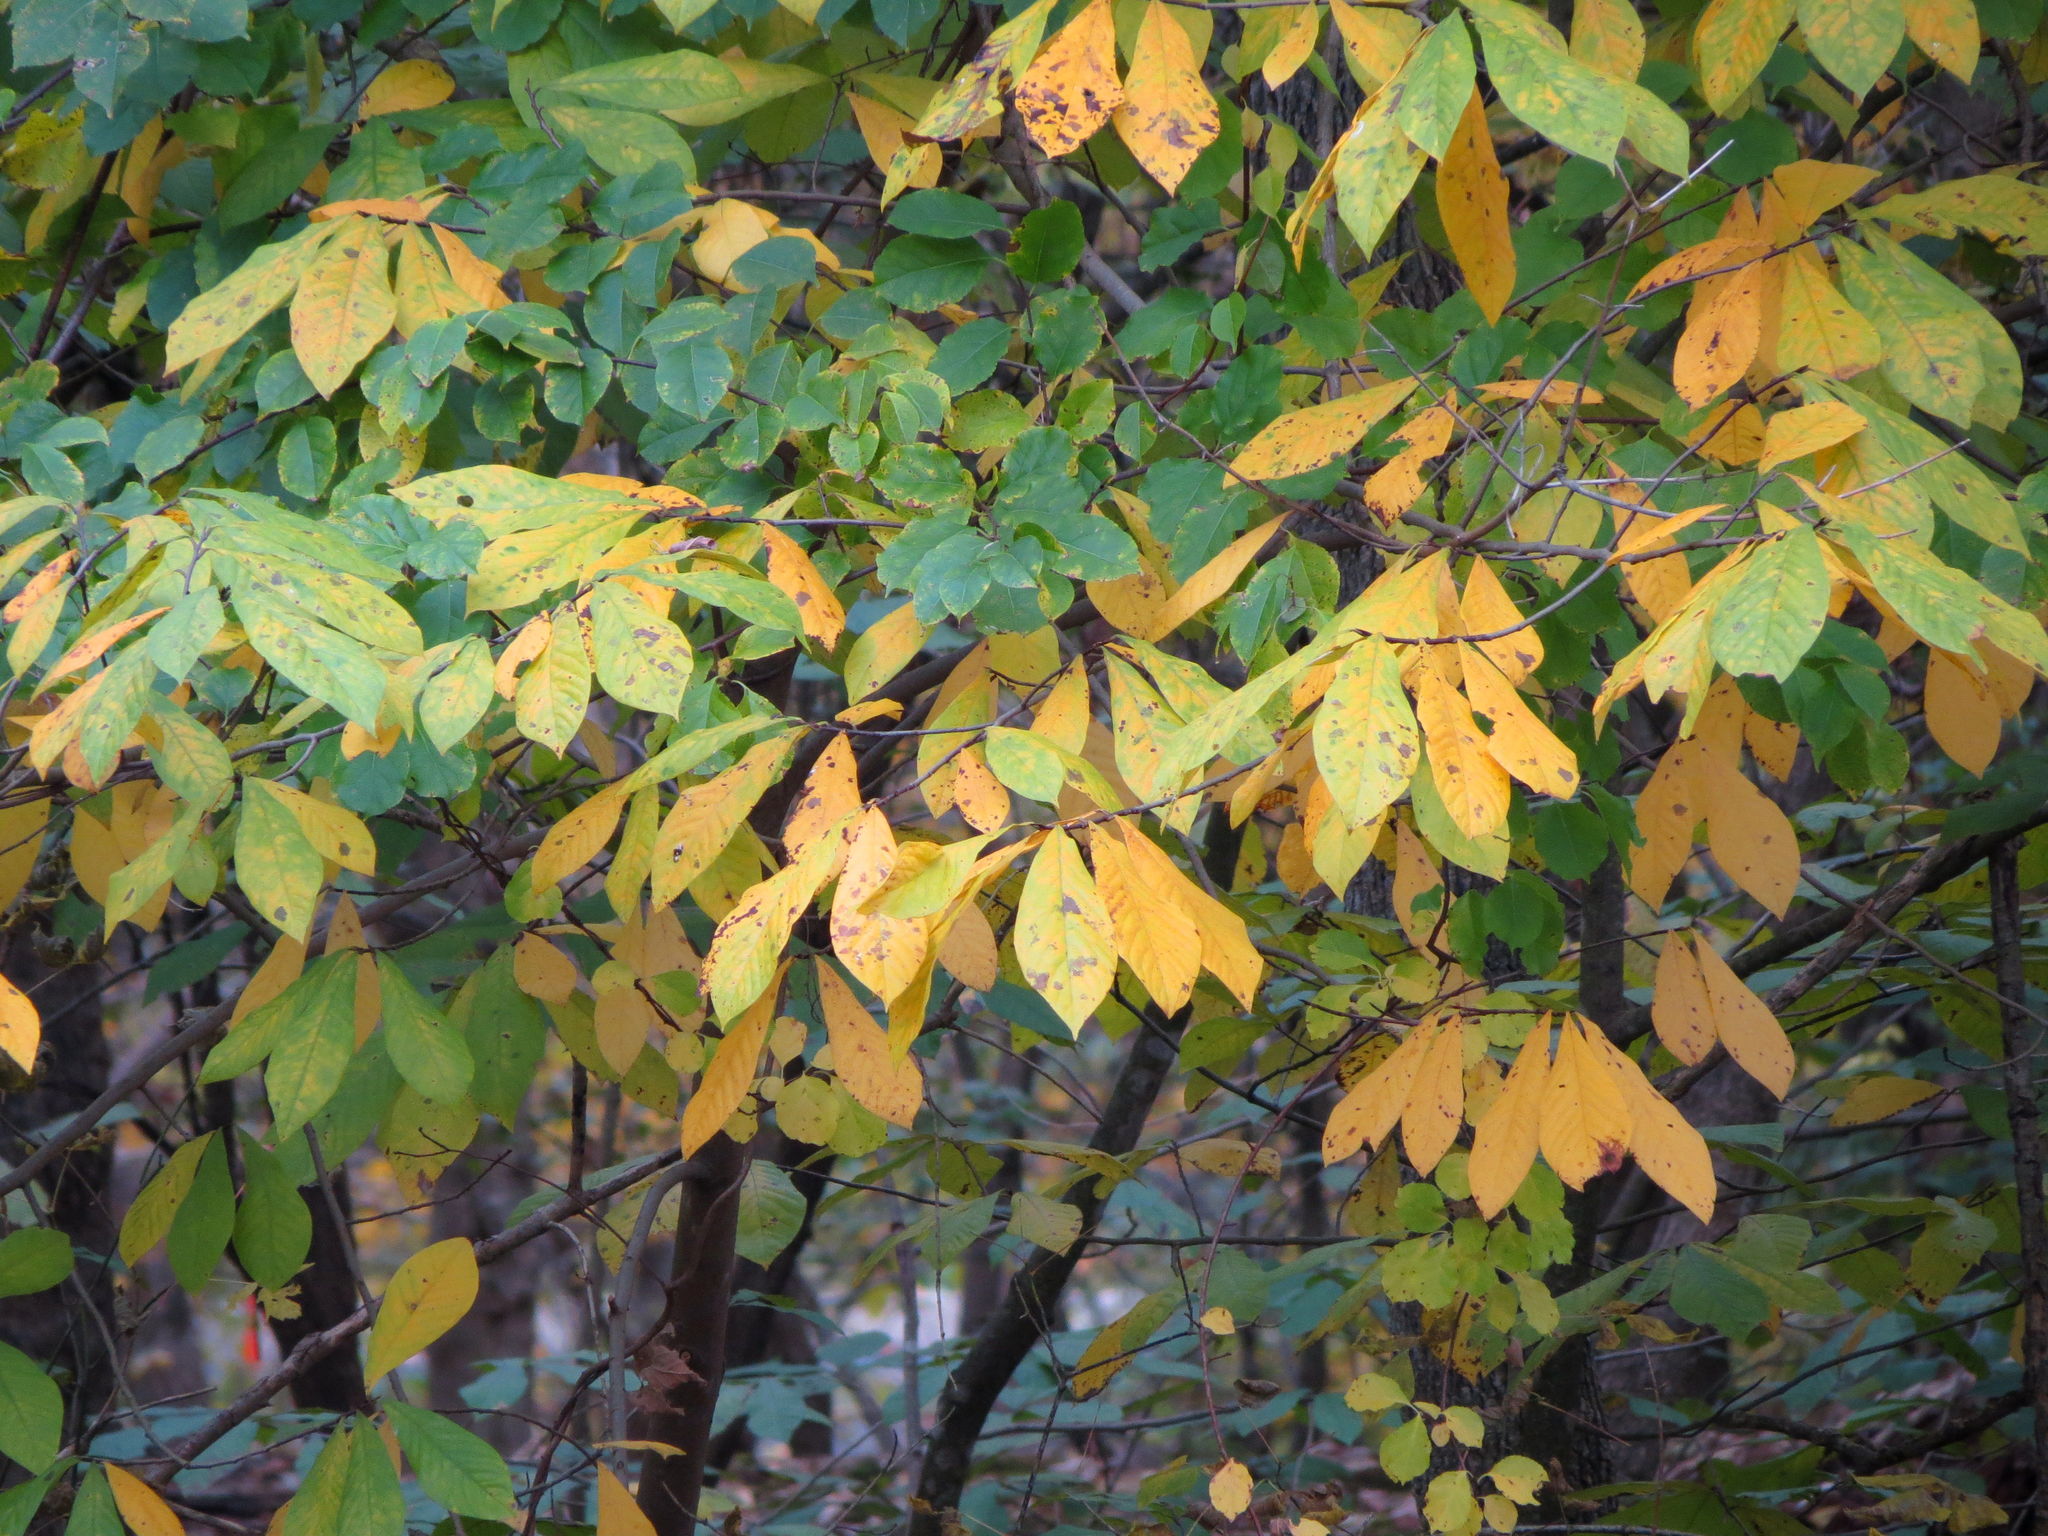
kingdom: Plantae
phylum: Tracheophyta
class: Magnoliopsida
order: Magnoliales
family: Annonaceae
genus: Asimina
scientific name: Asimina triloba
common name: Dog-banana
